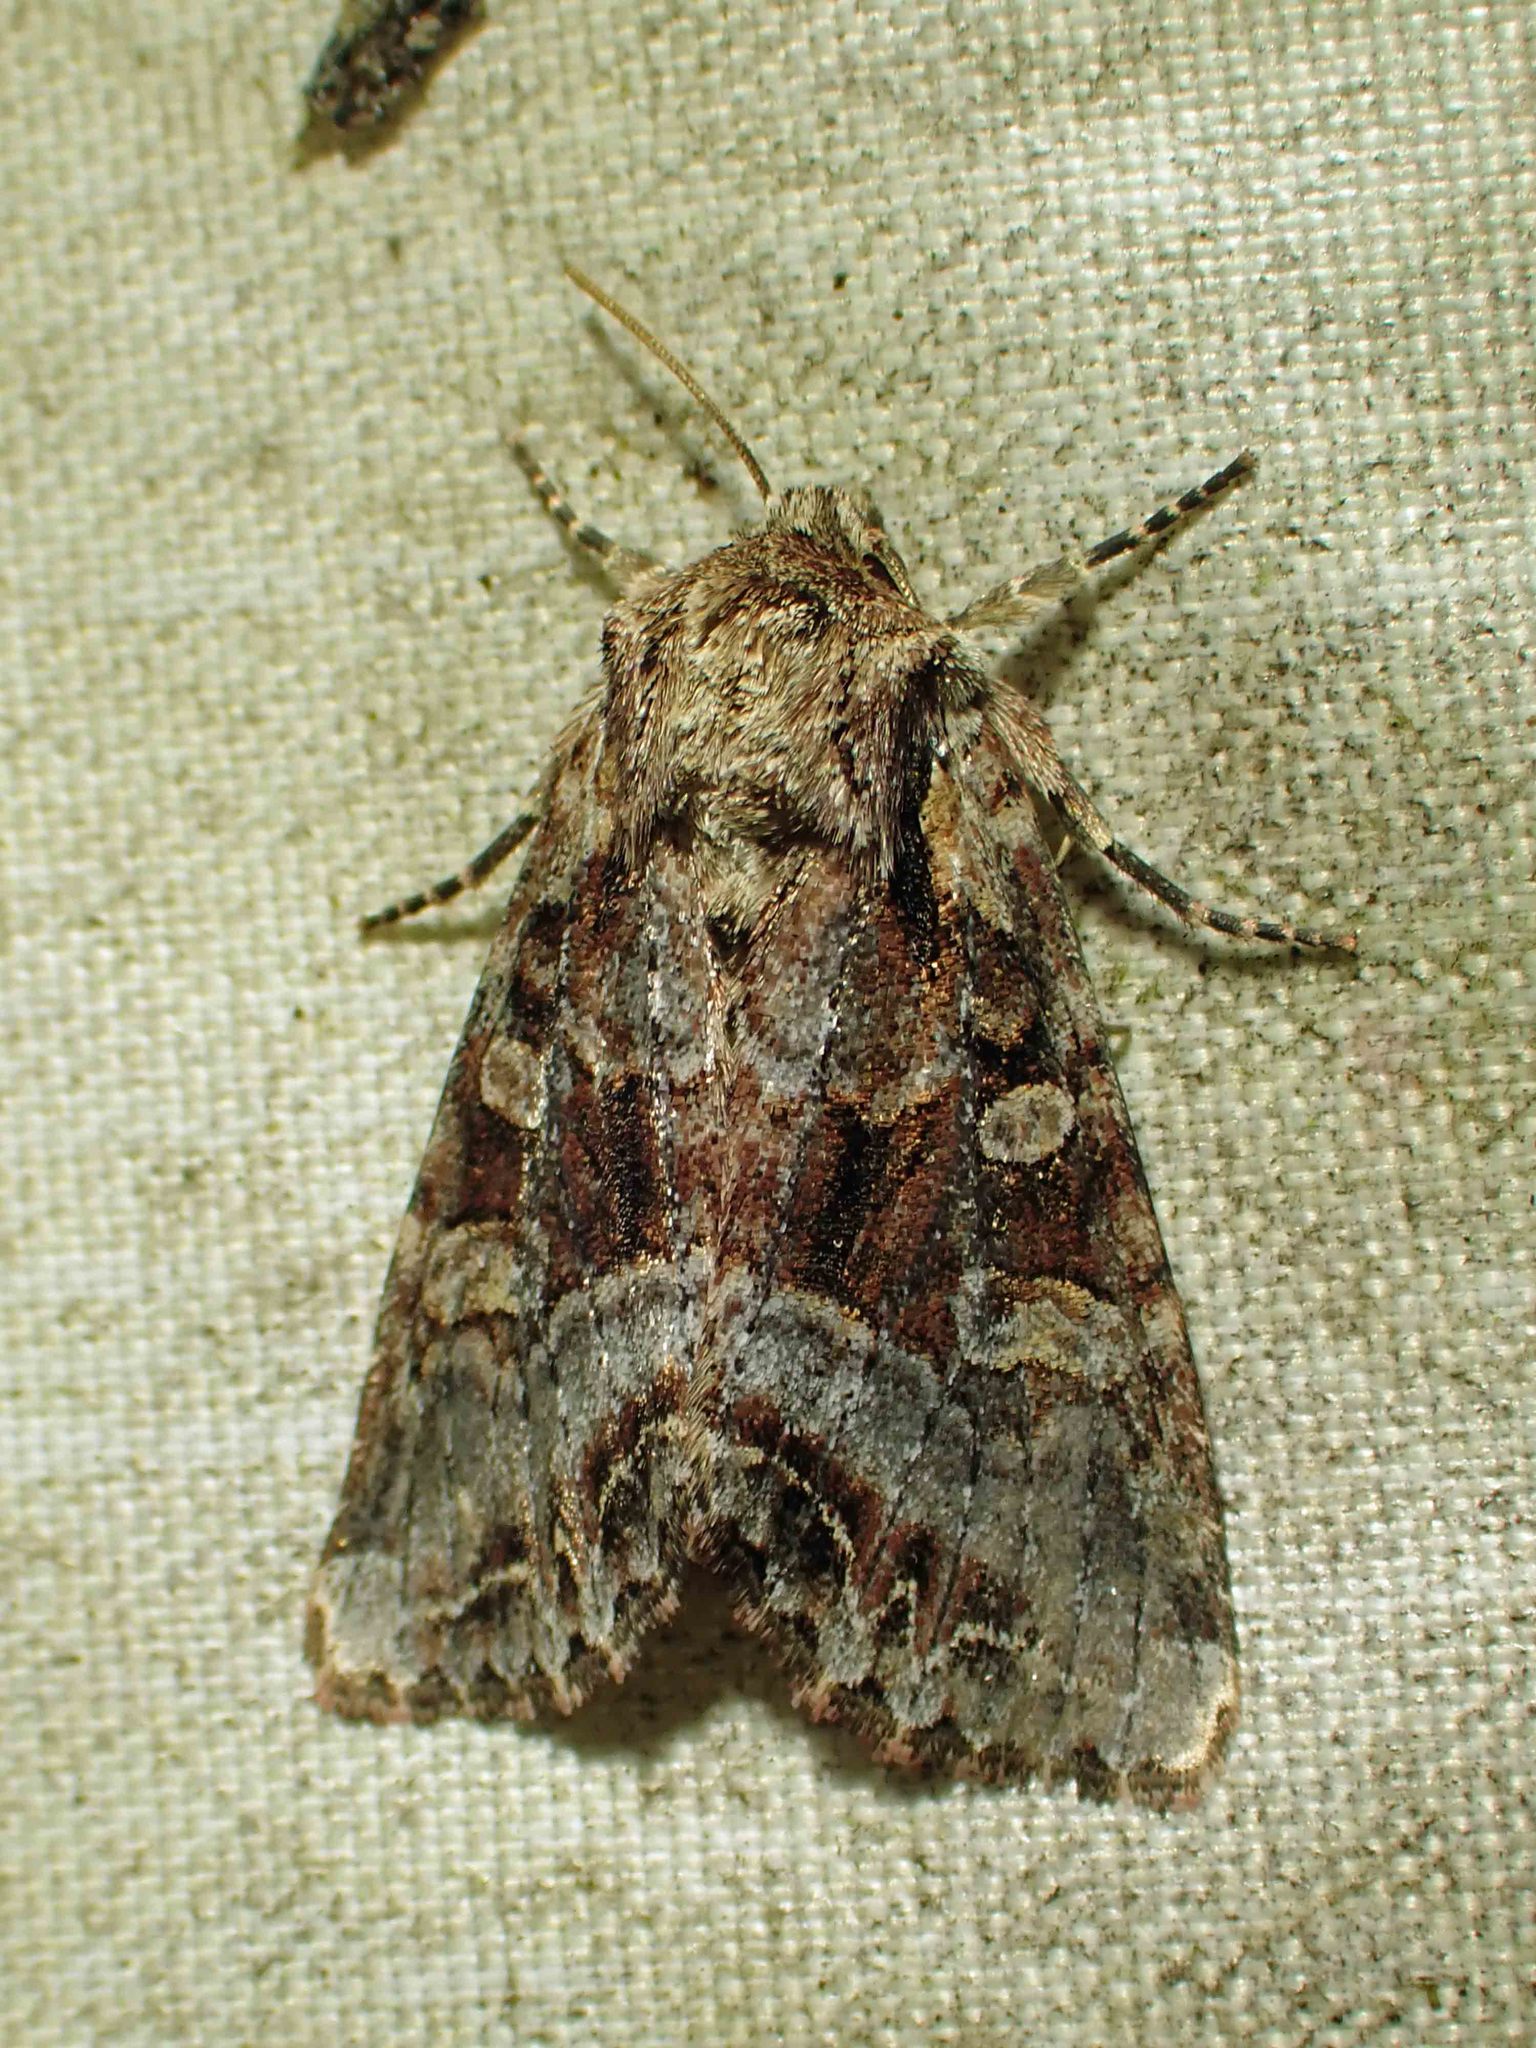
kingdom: Animalia
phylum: Arthropoda
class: Insecta
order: Lepidoptera
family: Noctuidae
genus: Lacanobia
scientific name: Lacanobia grandis
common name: Grand arches moth
